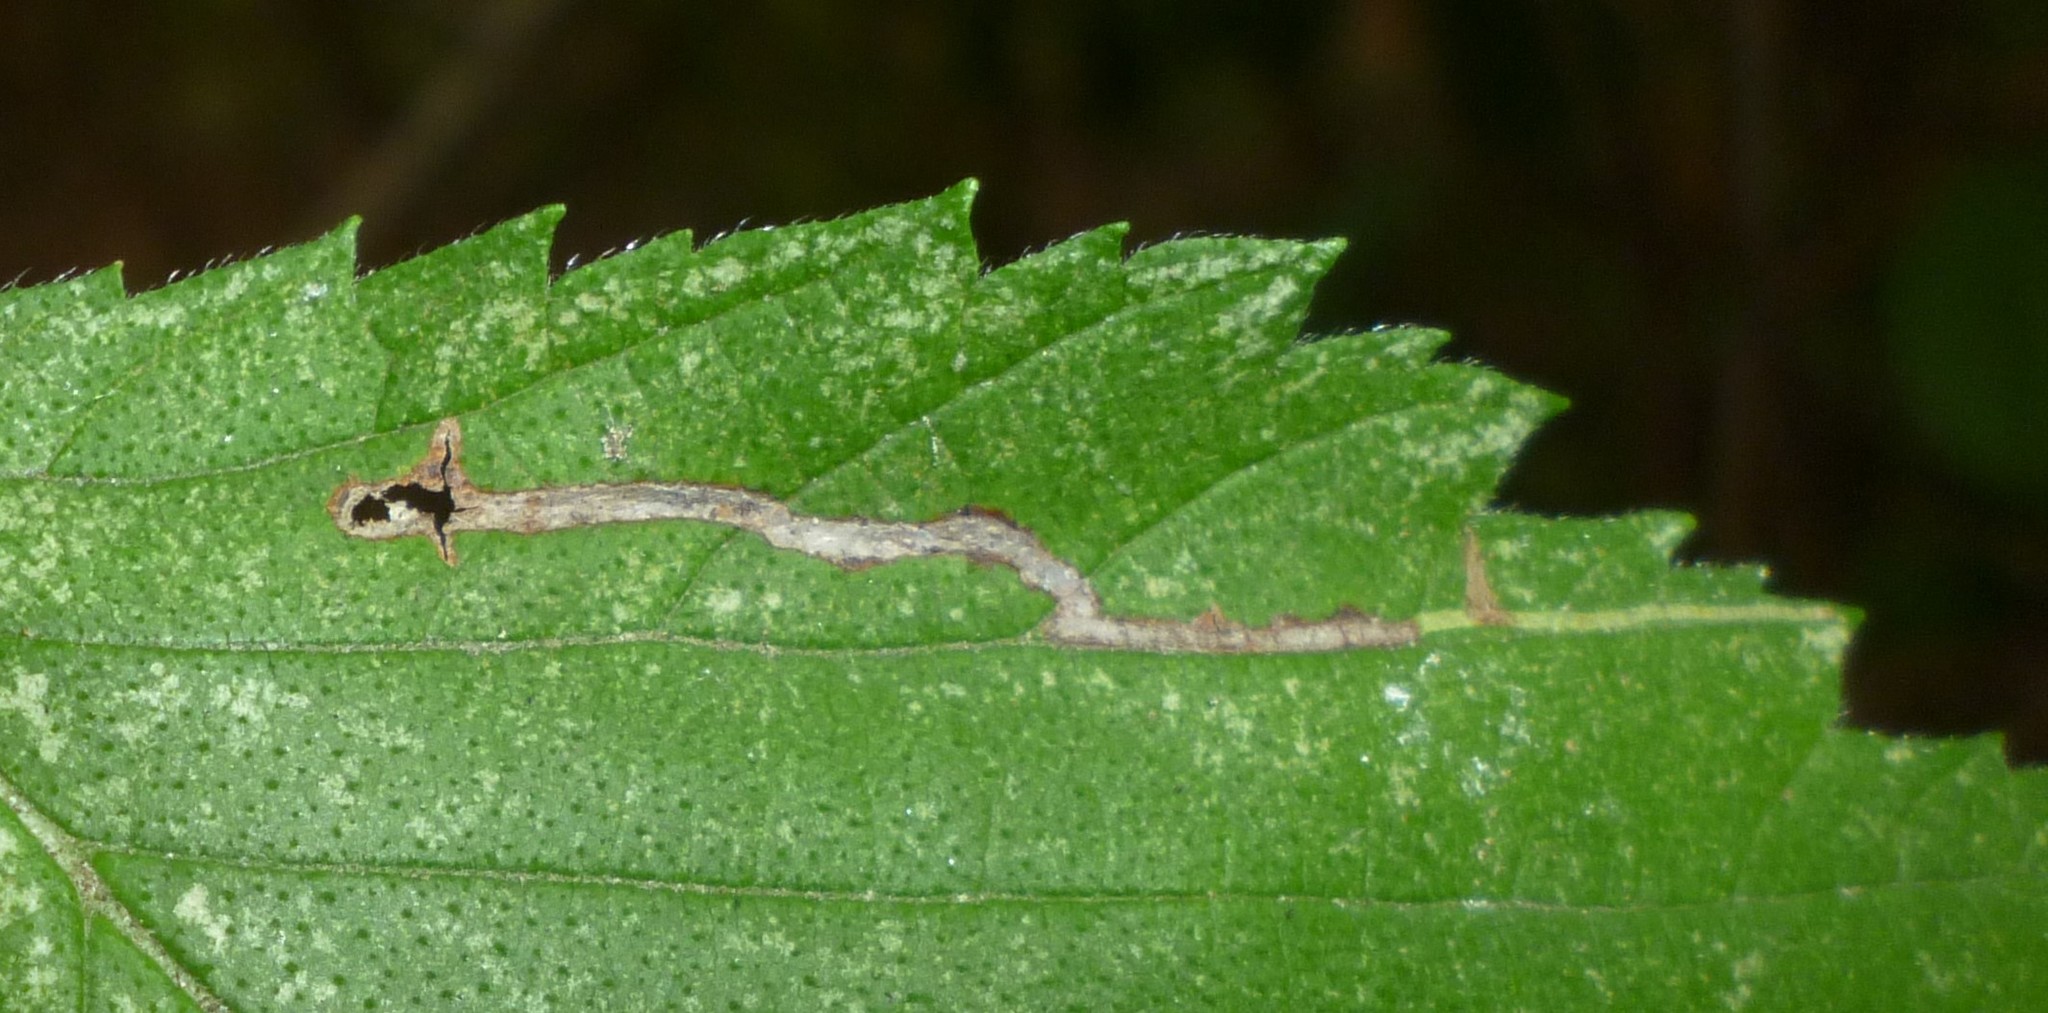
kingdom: Animalia
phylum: Arthropoda
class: Insecta
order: Diptera
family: Agromyzidae
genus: Agromyza
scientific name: Agromyza aristata
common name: Elm agromyzid leafminer
